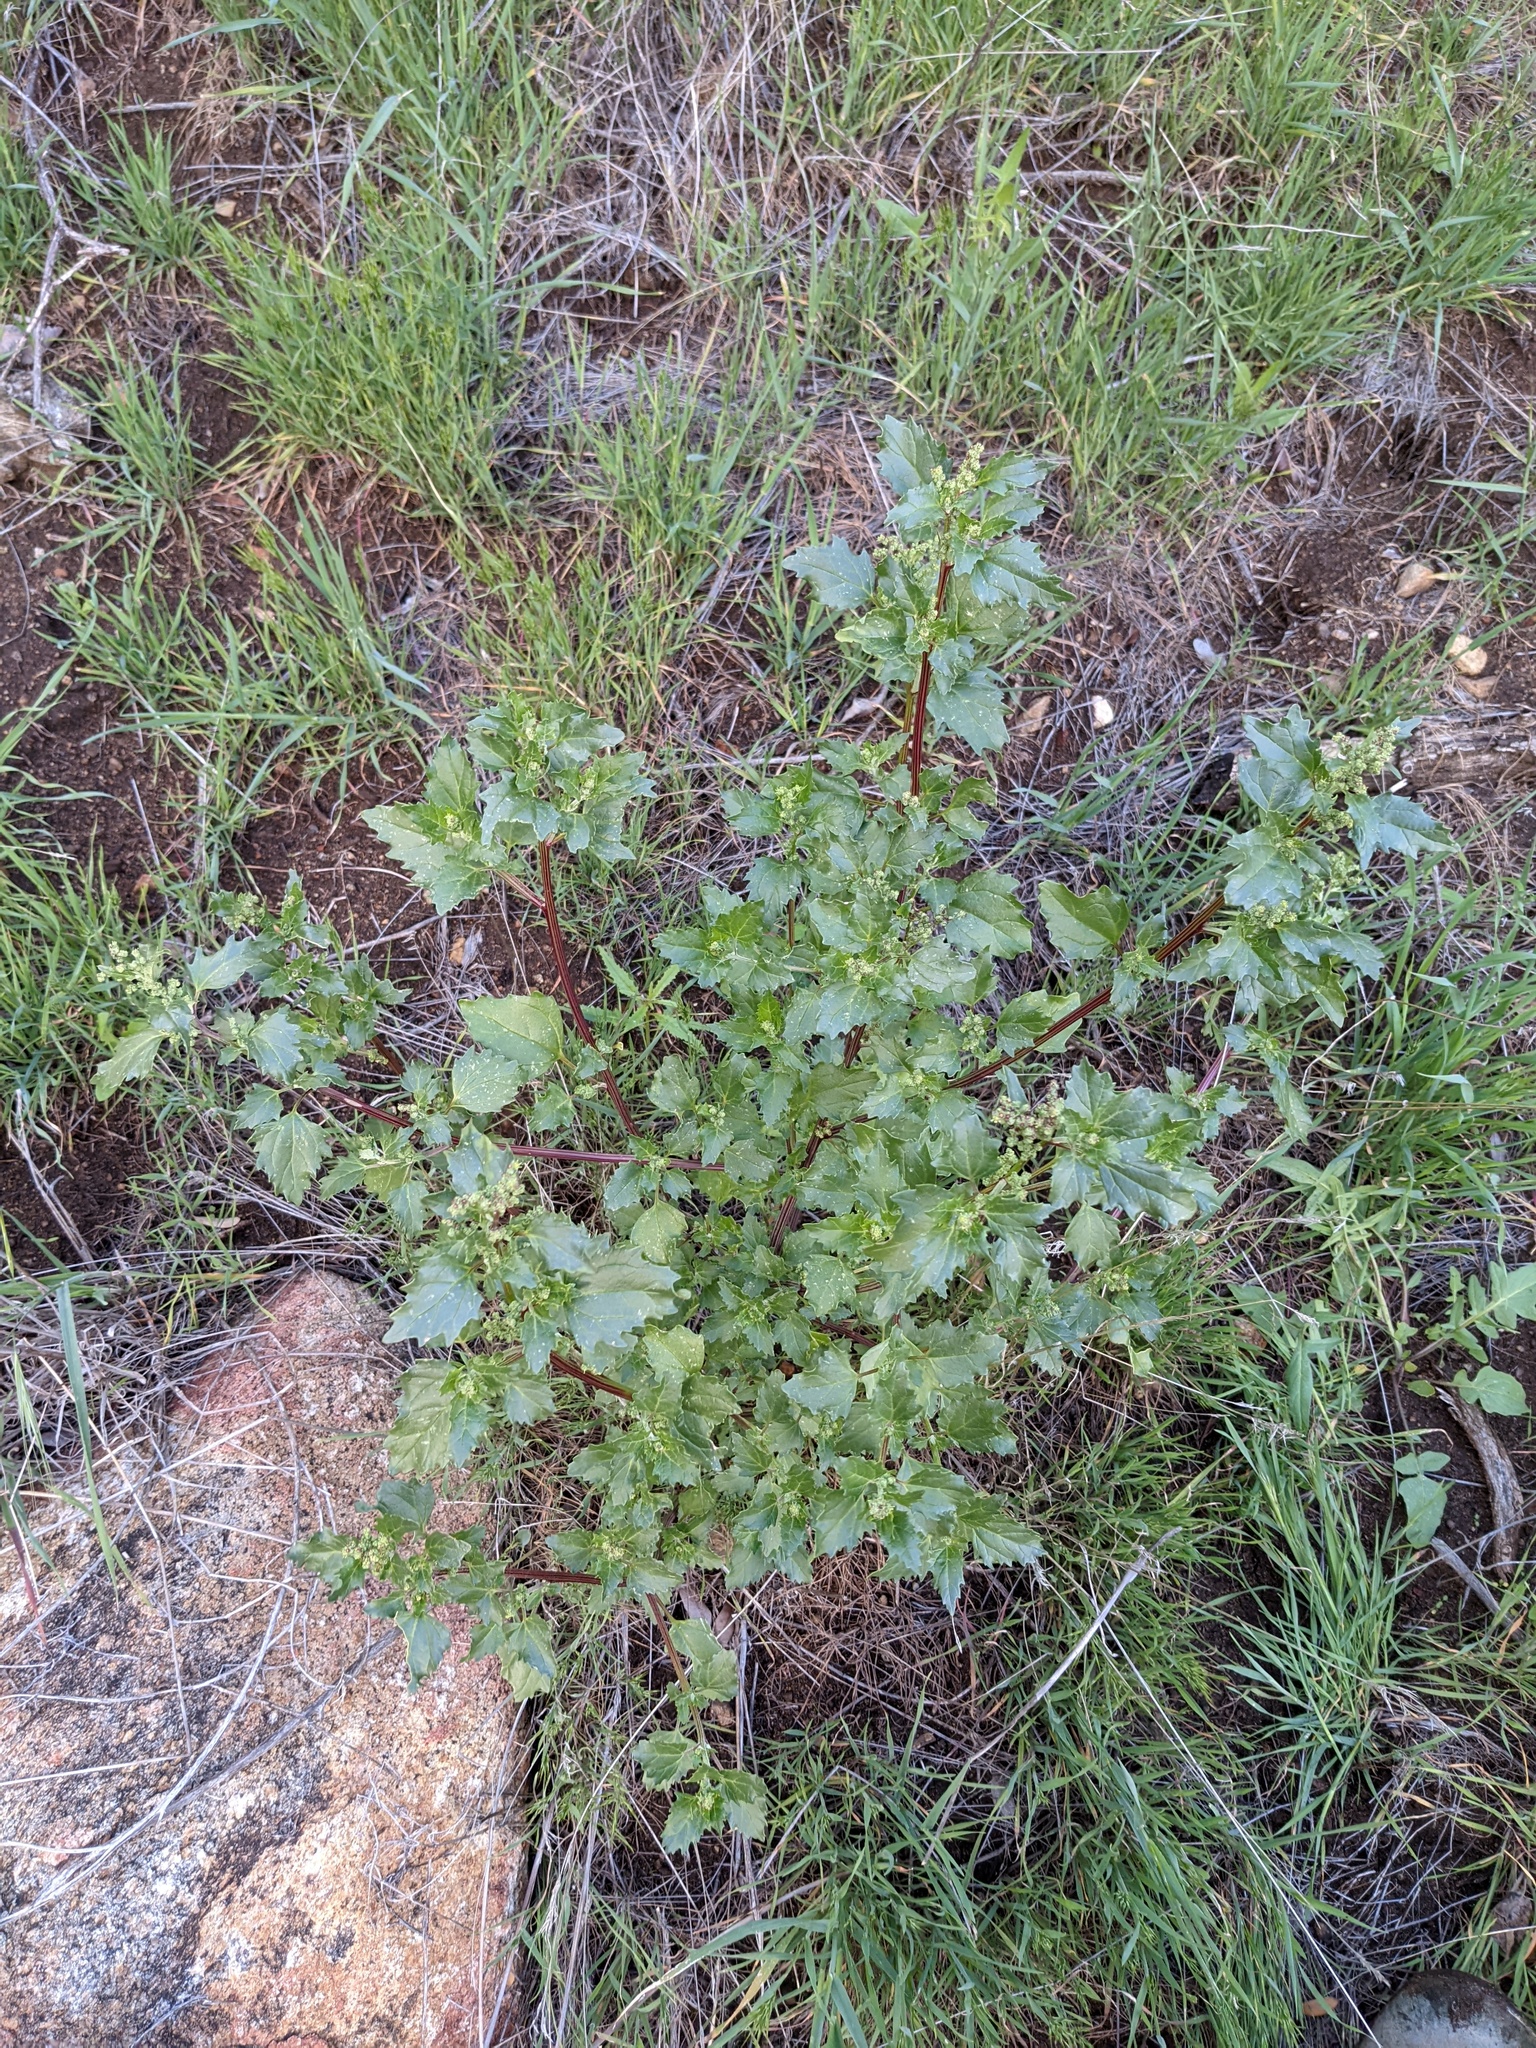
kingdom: Plantae
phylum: Tracheophyta
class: Magnoliopsida
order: Caryophyllales
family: Amaranthaceae
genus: Chenopodiastrum
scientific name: Chenopodiastrum murale
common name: Sowbane
